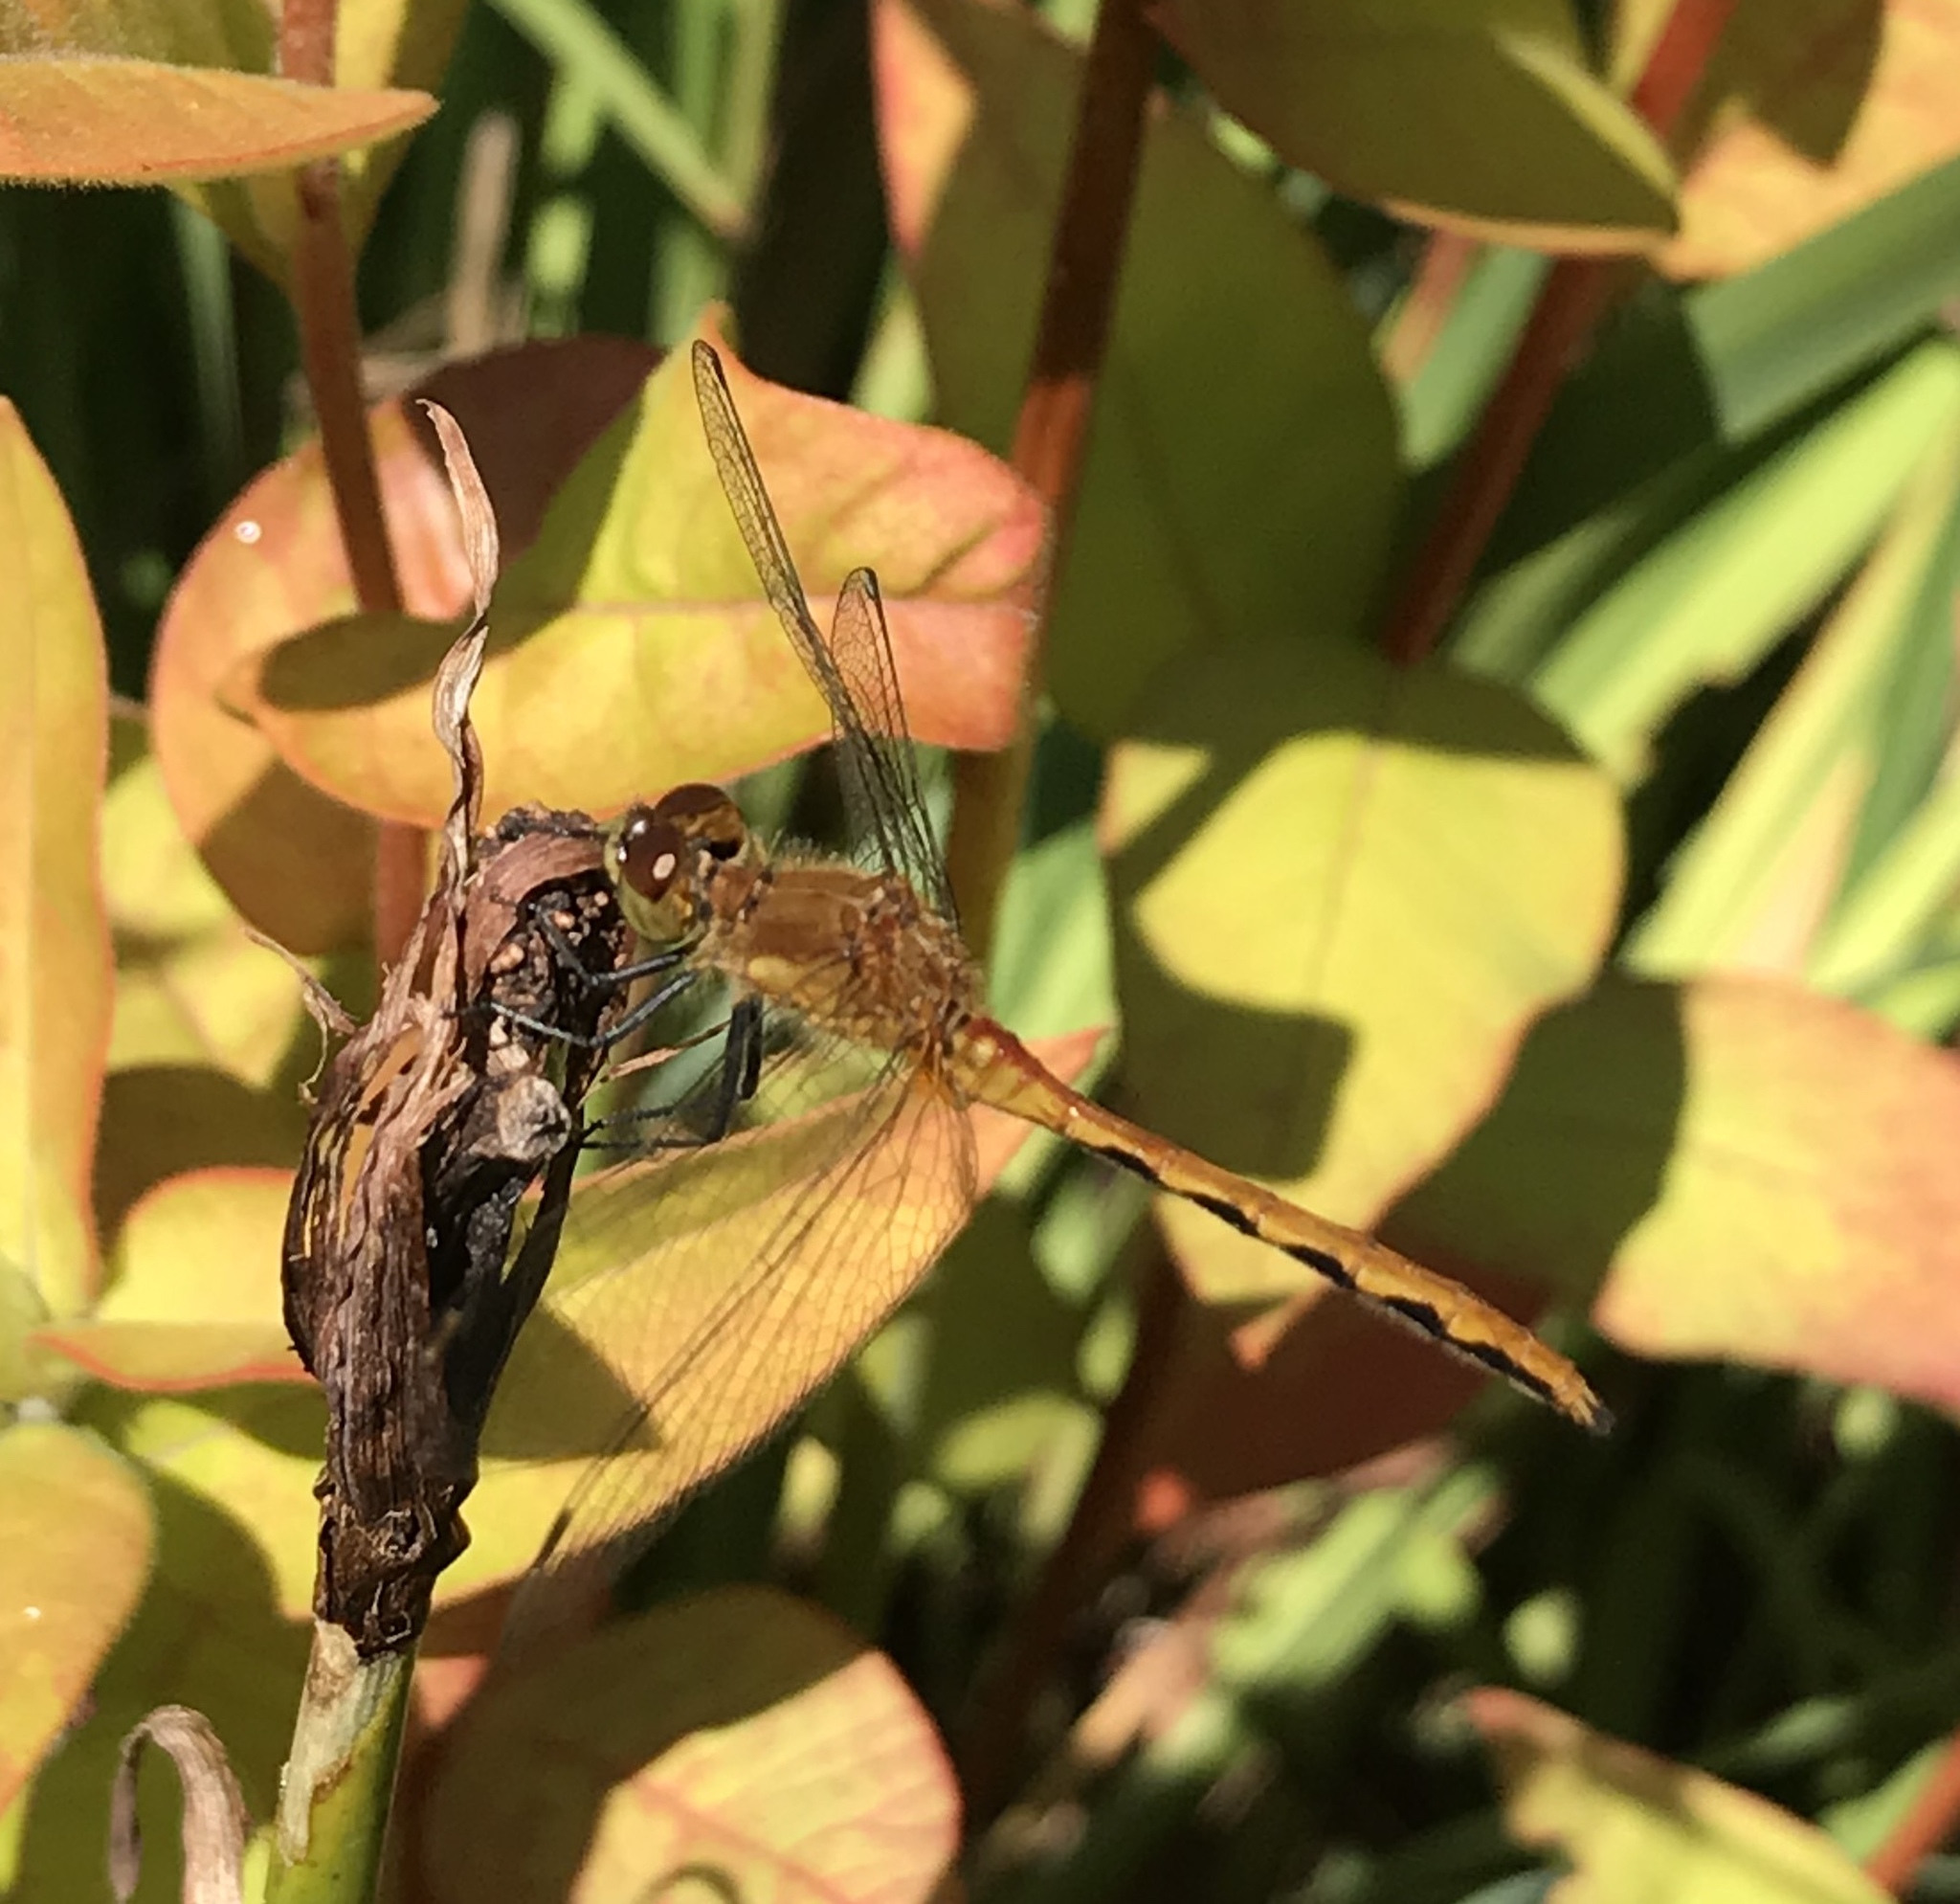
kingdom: Animalia
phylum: Arthropoda
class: Insecta
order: Odonata
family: Libellulidae
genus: Sympetrum
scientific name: Sympetrum vicinum
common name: Autumn meadowhawk
